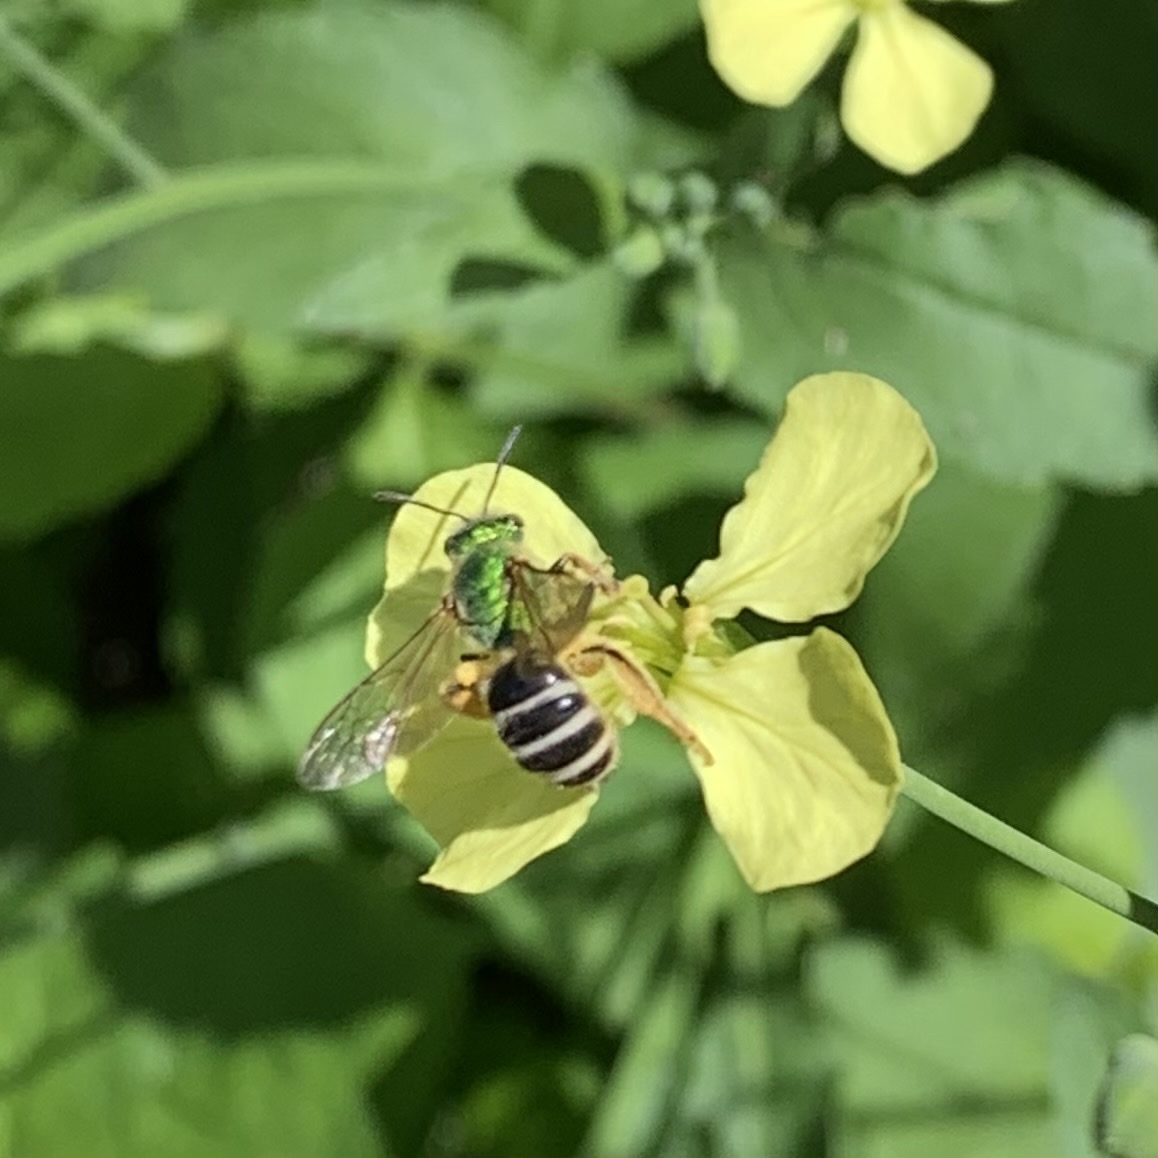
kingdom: Animalia
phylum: Arthropoda
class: Insecta
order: Hymenoptera
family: Halictidae
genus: Agapostemon
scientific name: Agapostemon virescens
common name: Bicolored striped sweat bee
